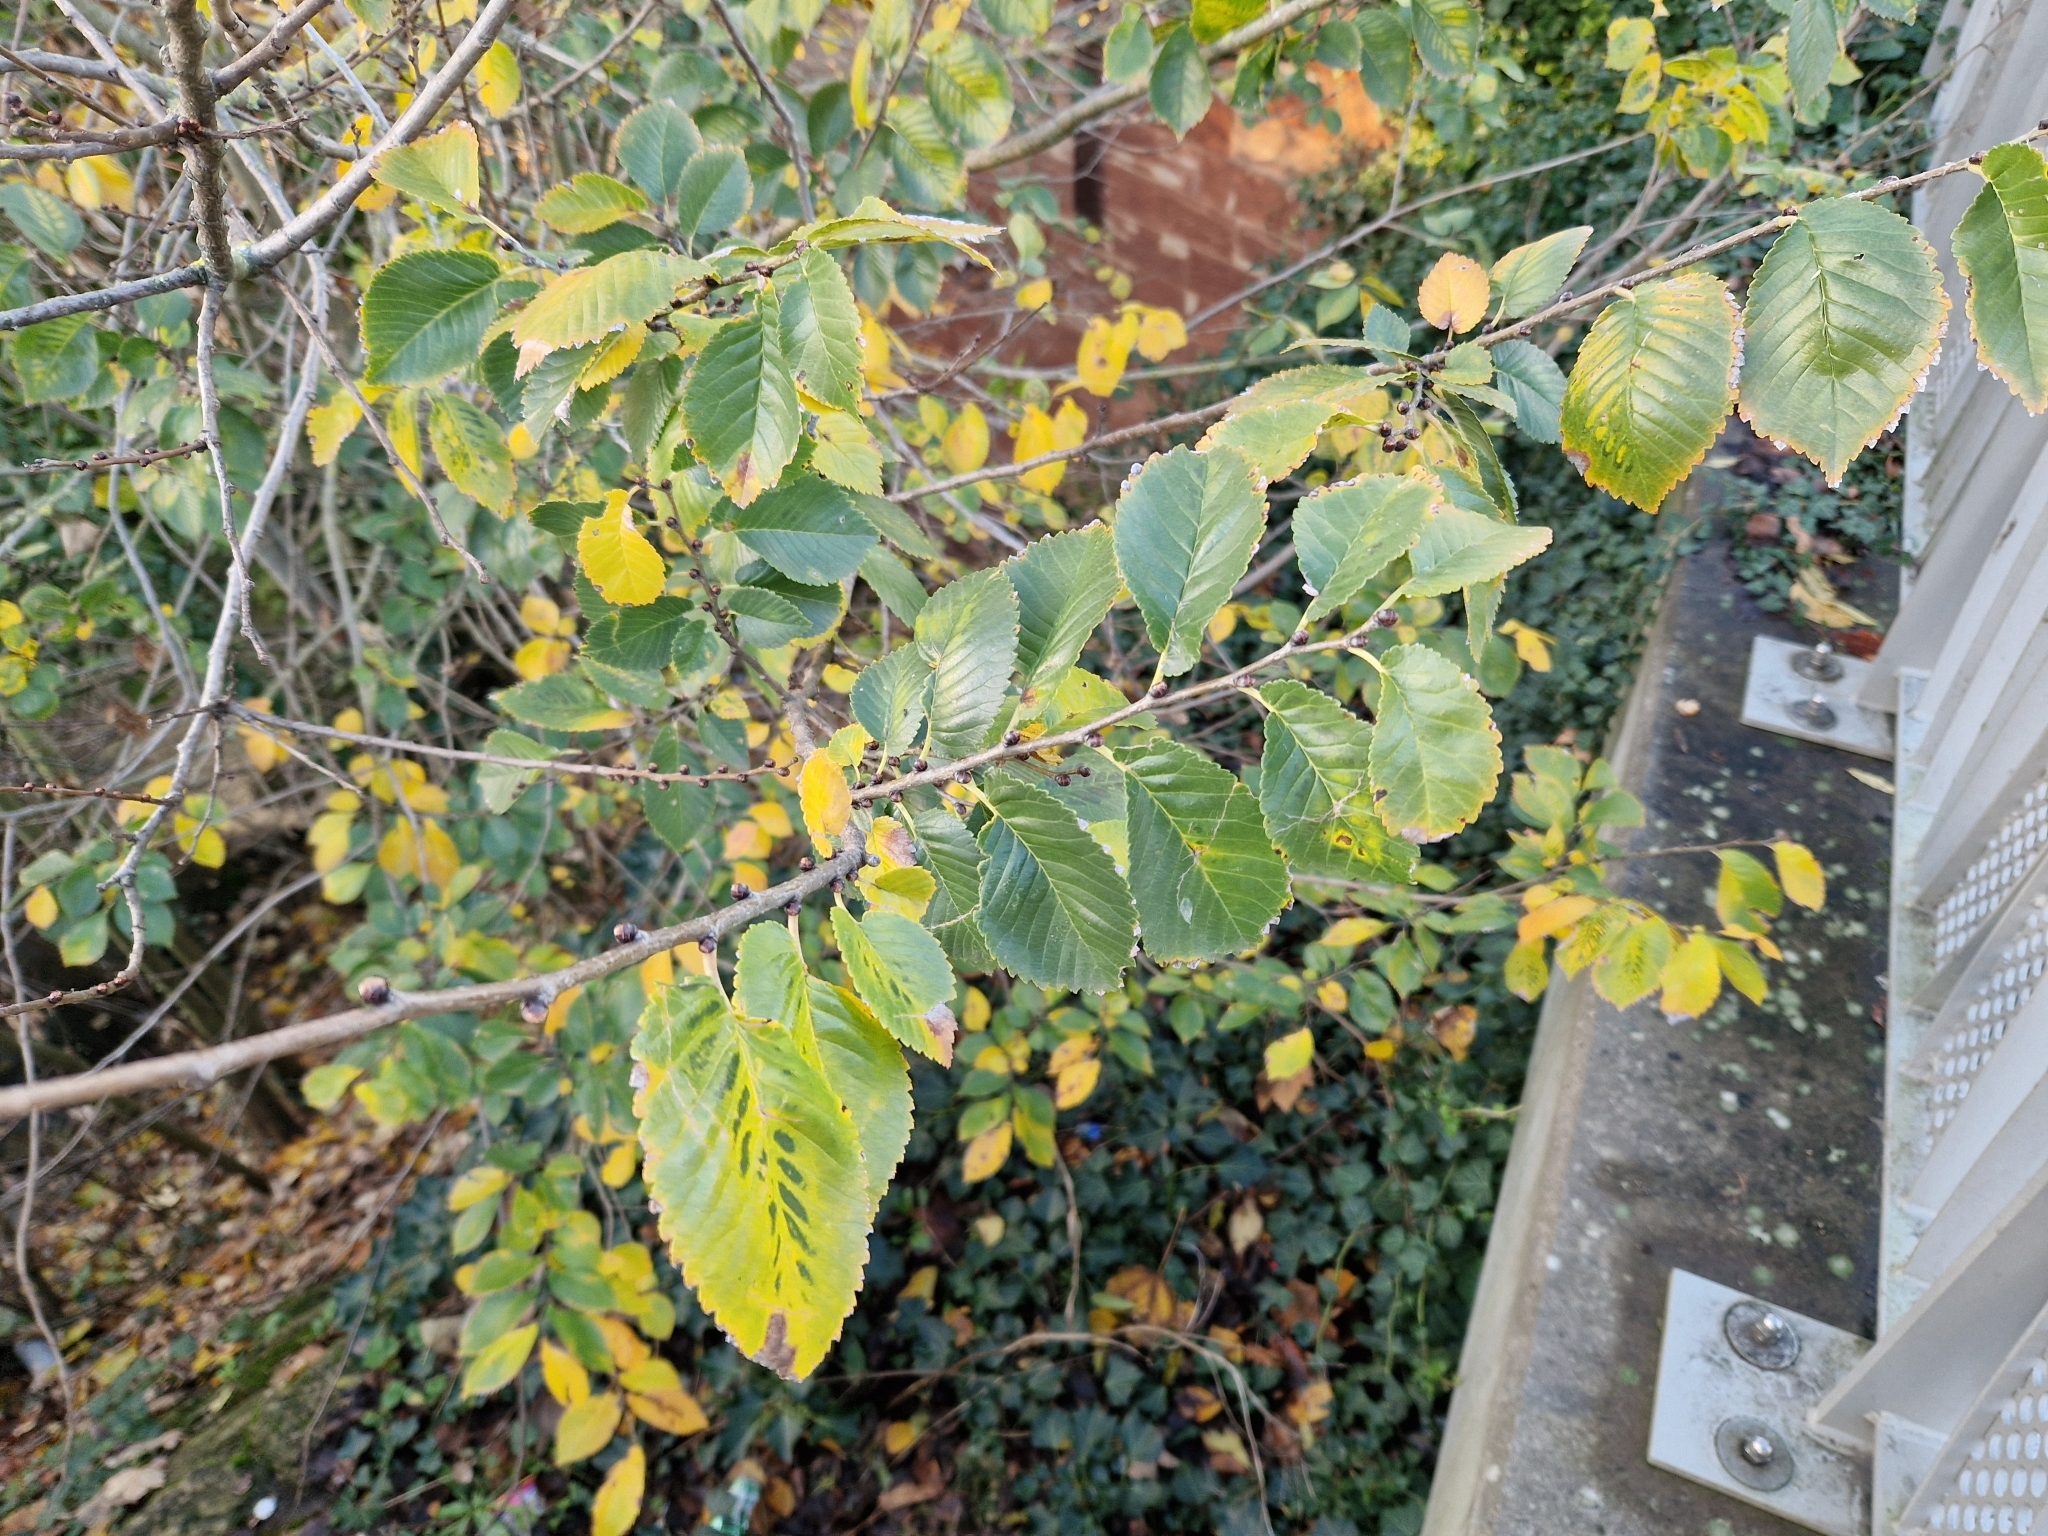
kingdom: Plantae
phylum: Tracheophyta
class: Magnoliopsida
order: Rosales
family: Ulmaceae
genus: Ulmus
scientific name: Ulmus minor
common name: Small-leaved elm
